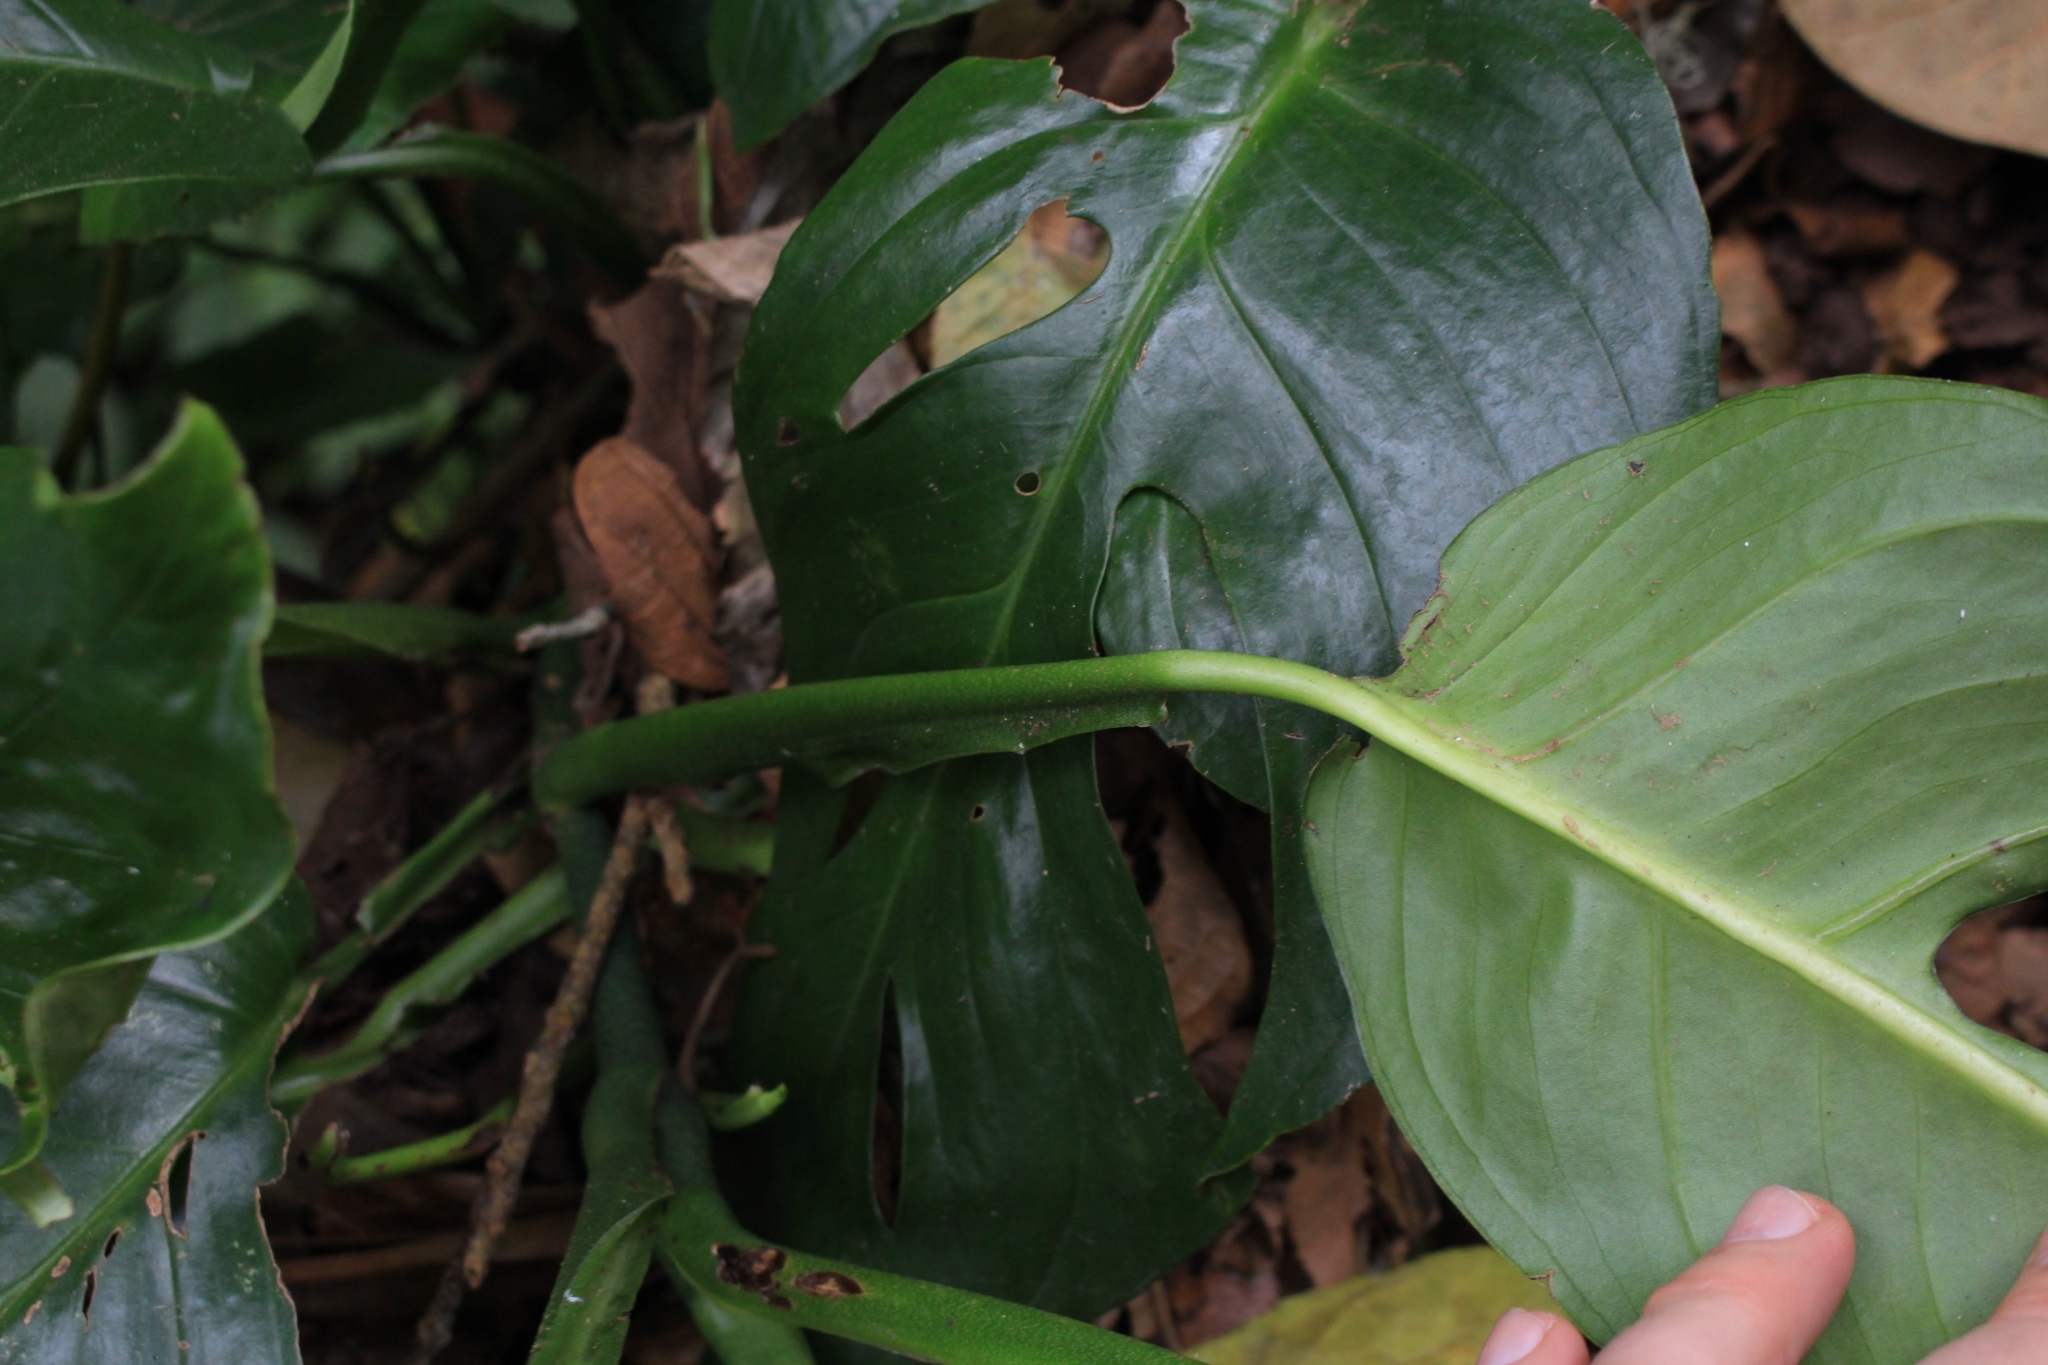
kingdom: Plantae
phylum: Tracheophyta
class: Liliopsida
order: Alismatales
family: Araceae
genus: Monstera
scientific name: Monstera dissecta
